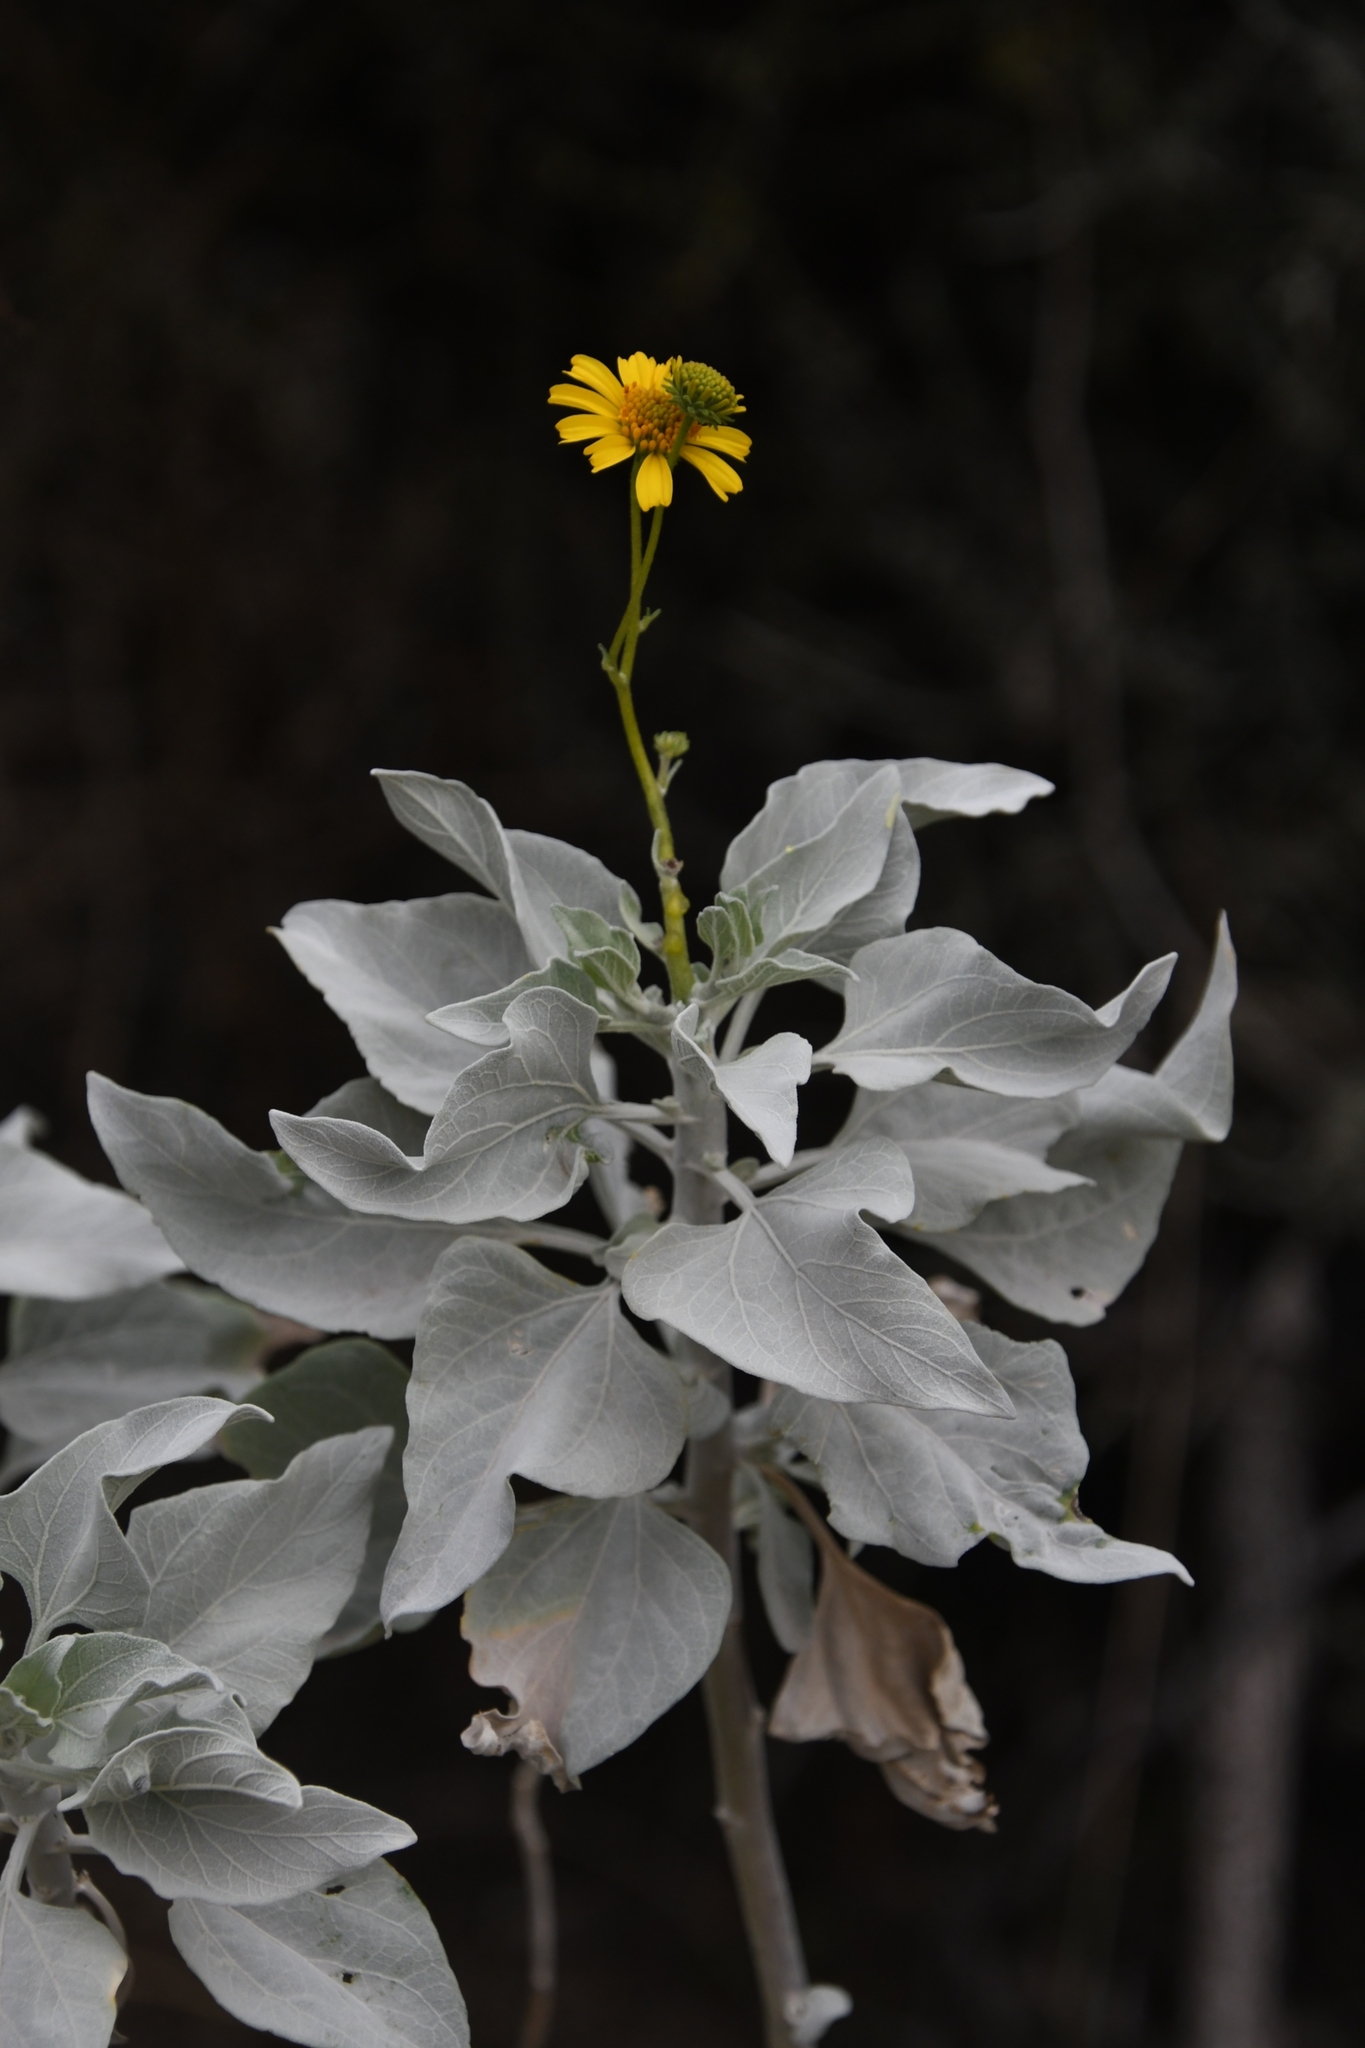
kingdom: Plantae
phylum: Tracheophyta
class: Magnoliopsida
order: Asterales
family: Asteraceae
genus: Encelia
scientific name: Encelia farinosa
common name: Brittlebush
